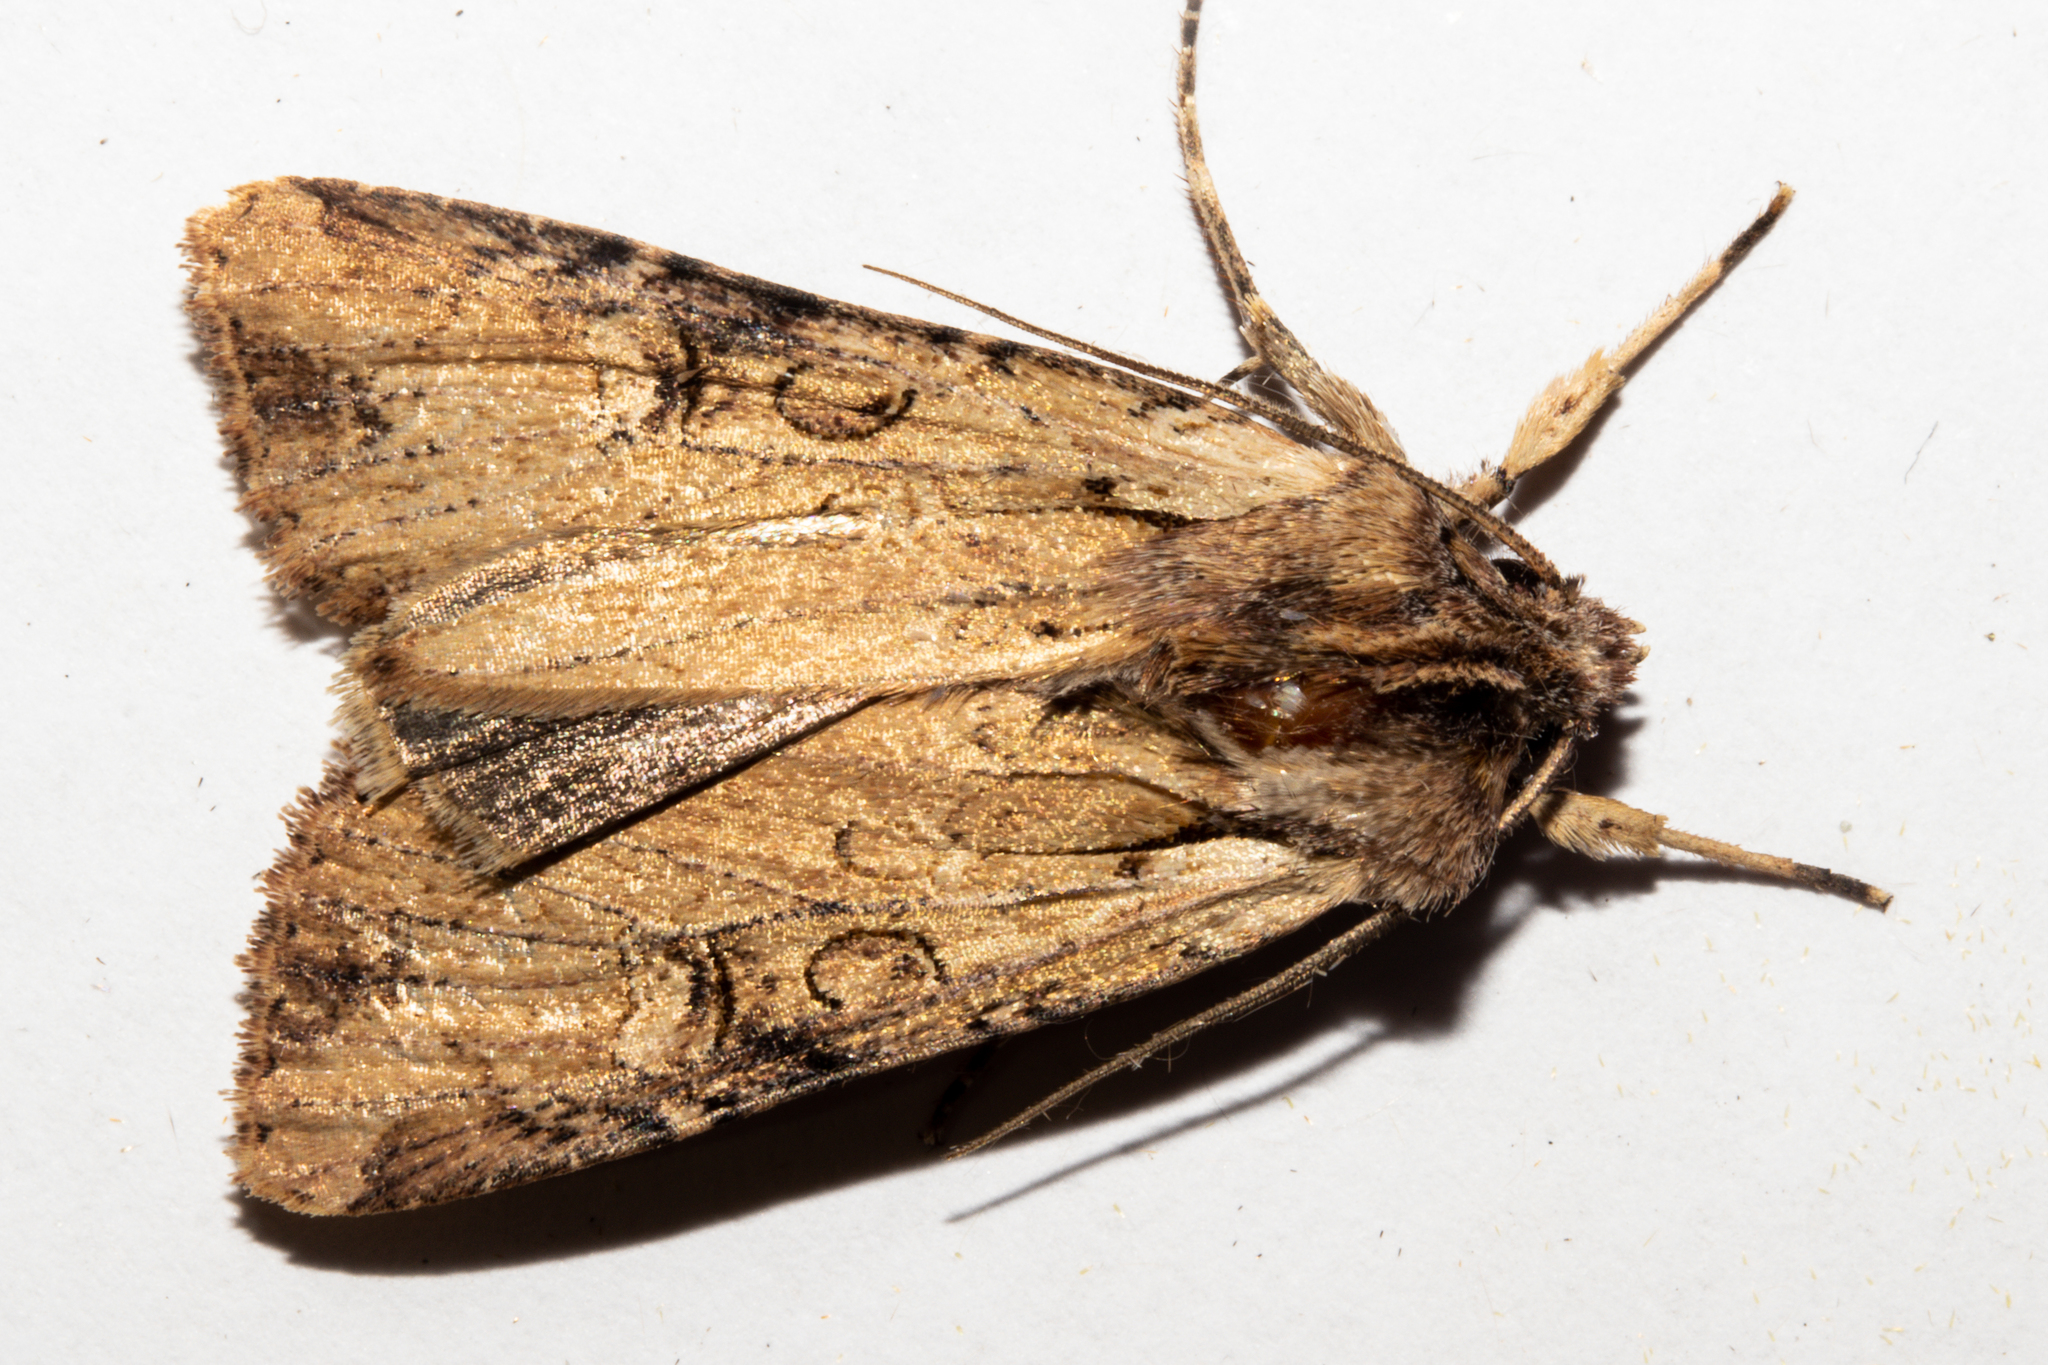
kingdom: Animalia
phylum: Arthropoda
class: Insecta
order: Lepidoptera
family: Noctuidae
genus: Ichneutica
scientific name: Ichneutica omoplaca
